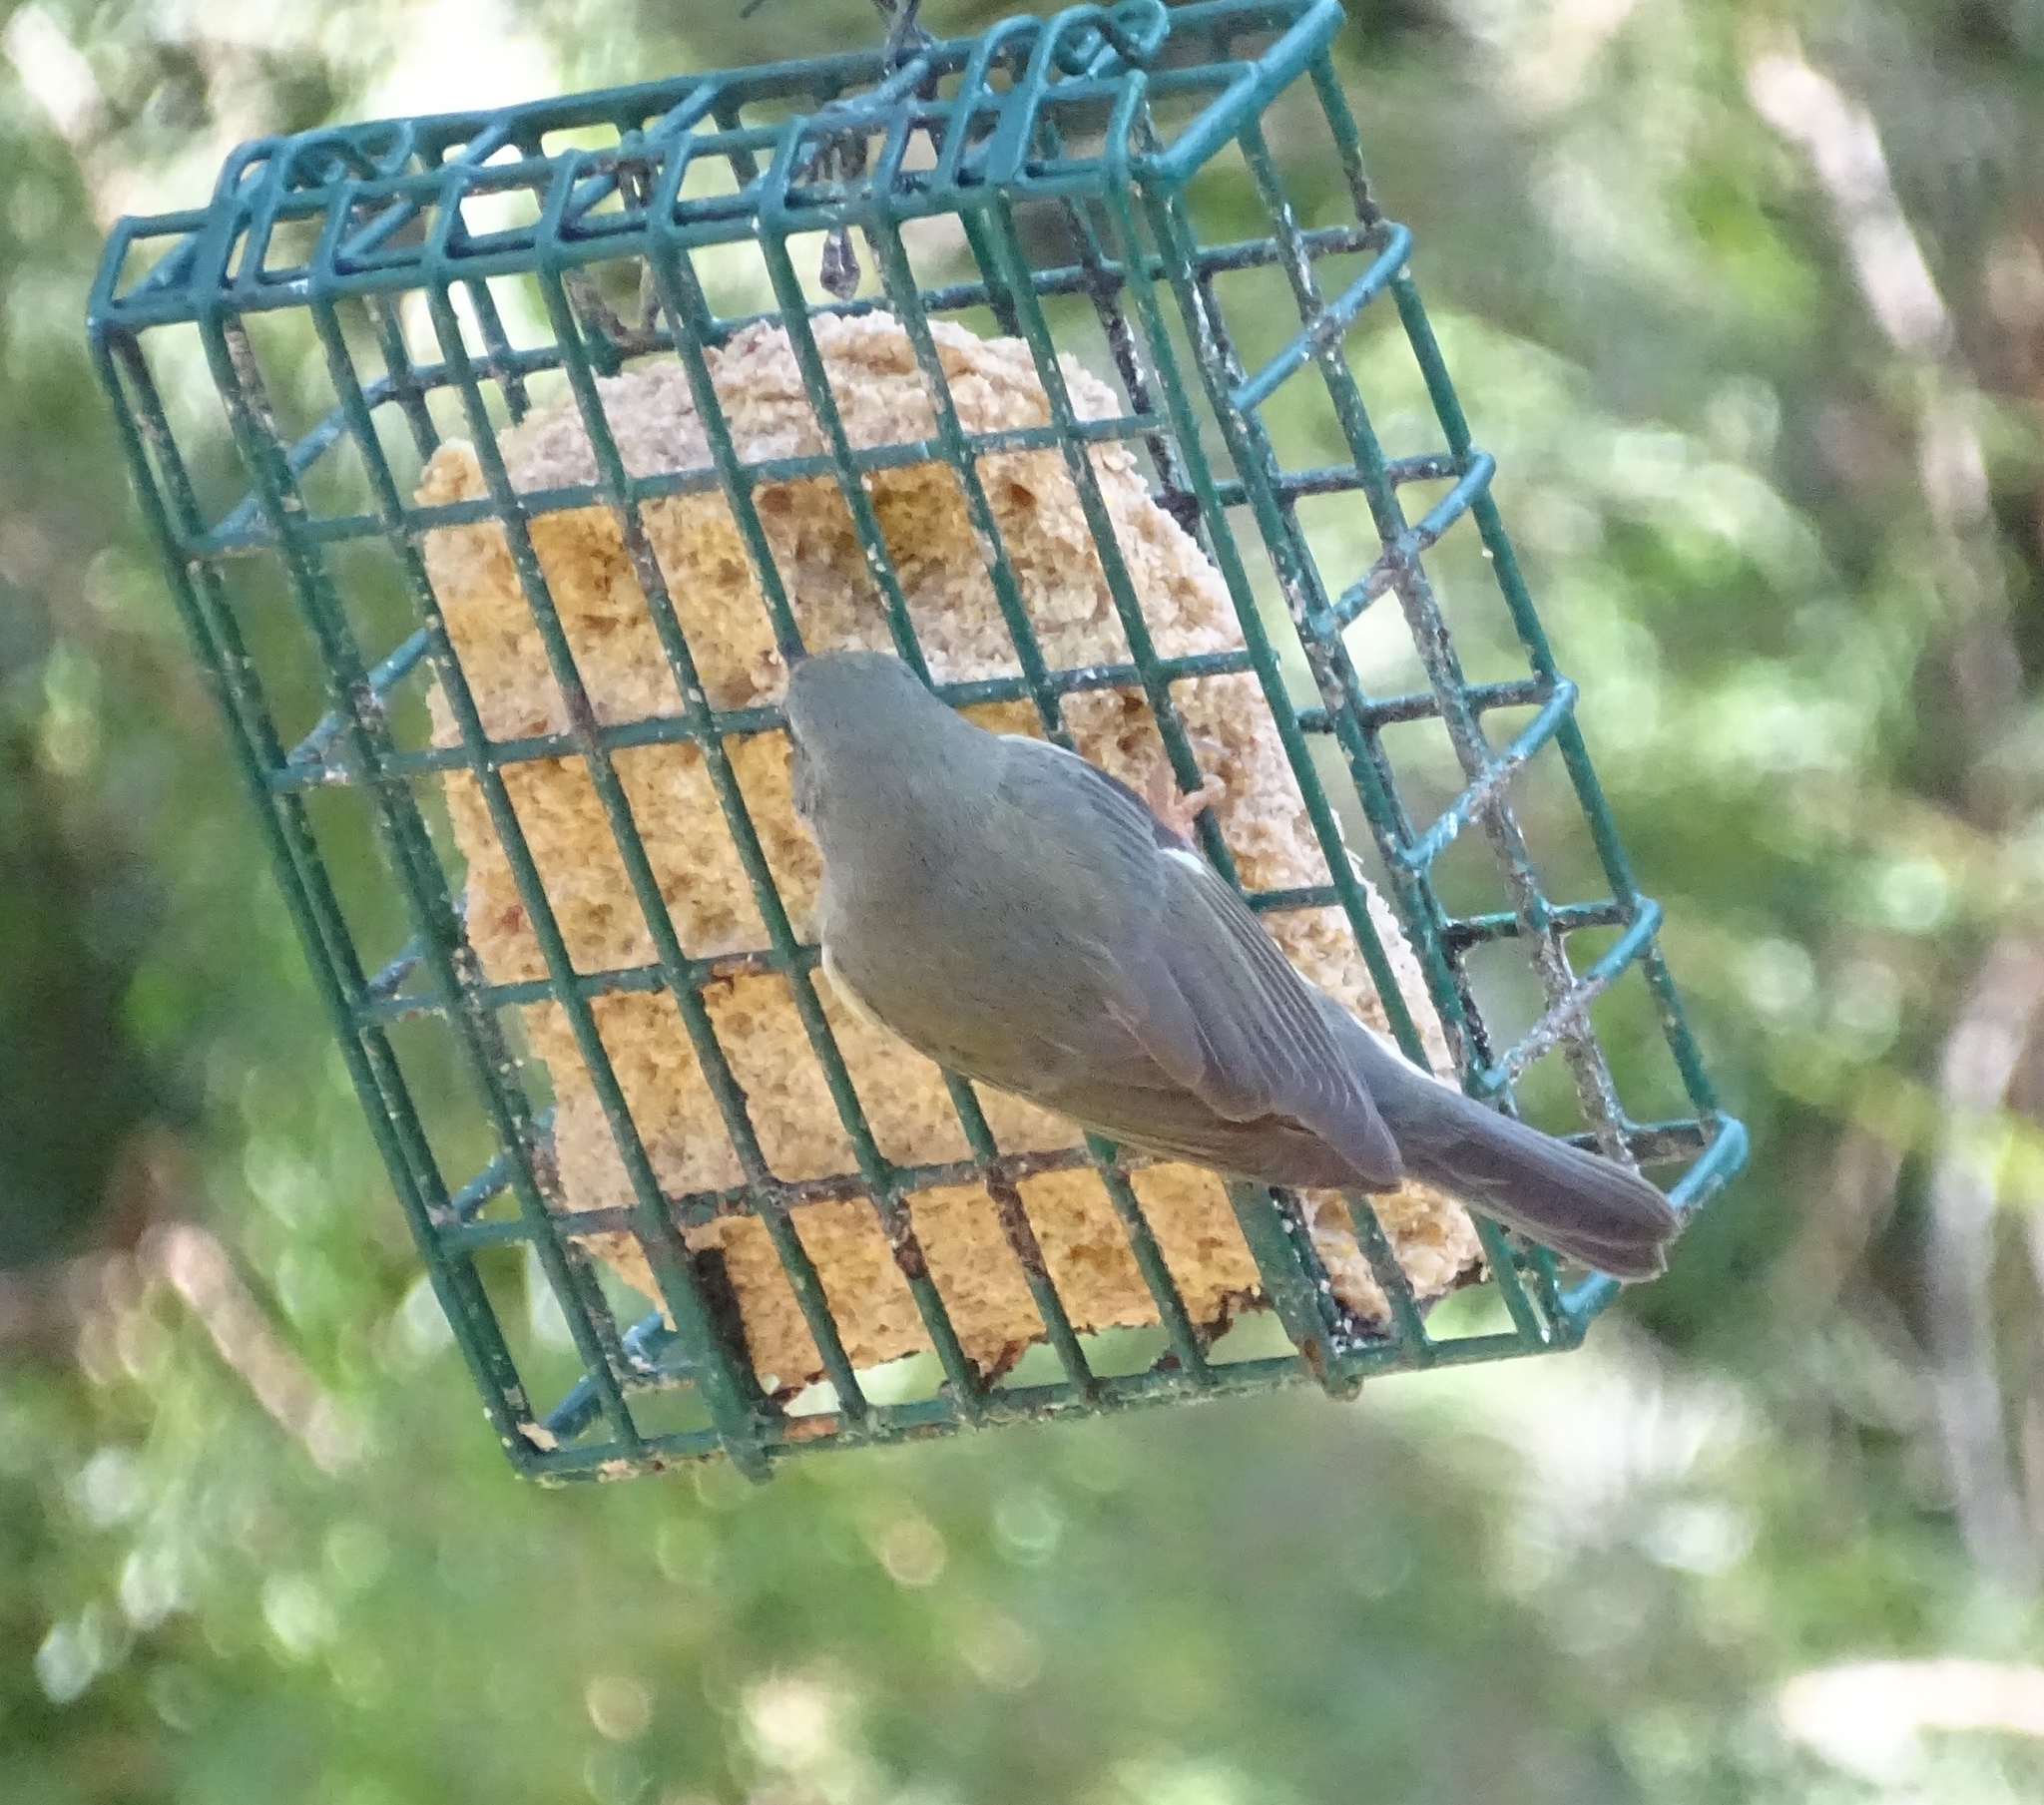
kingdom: Animalia
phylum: Chordata
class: Aves
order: Passeriformes
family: Parulidae
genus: Setophaga
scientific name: Setophaga caerulescens
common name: Black-throated blue warbler
